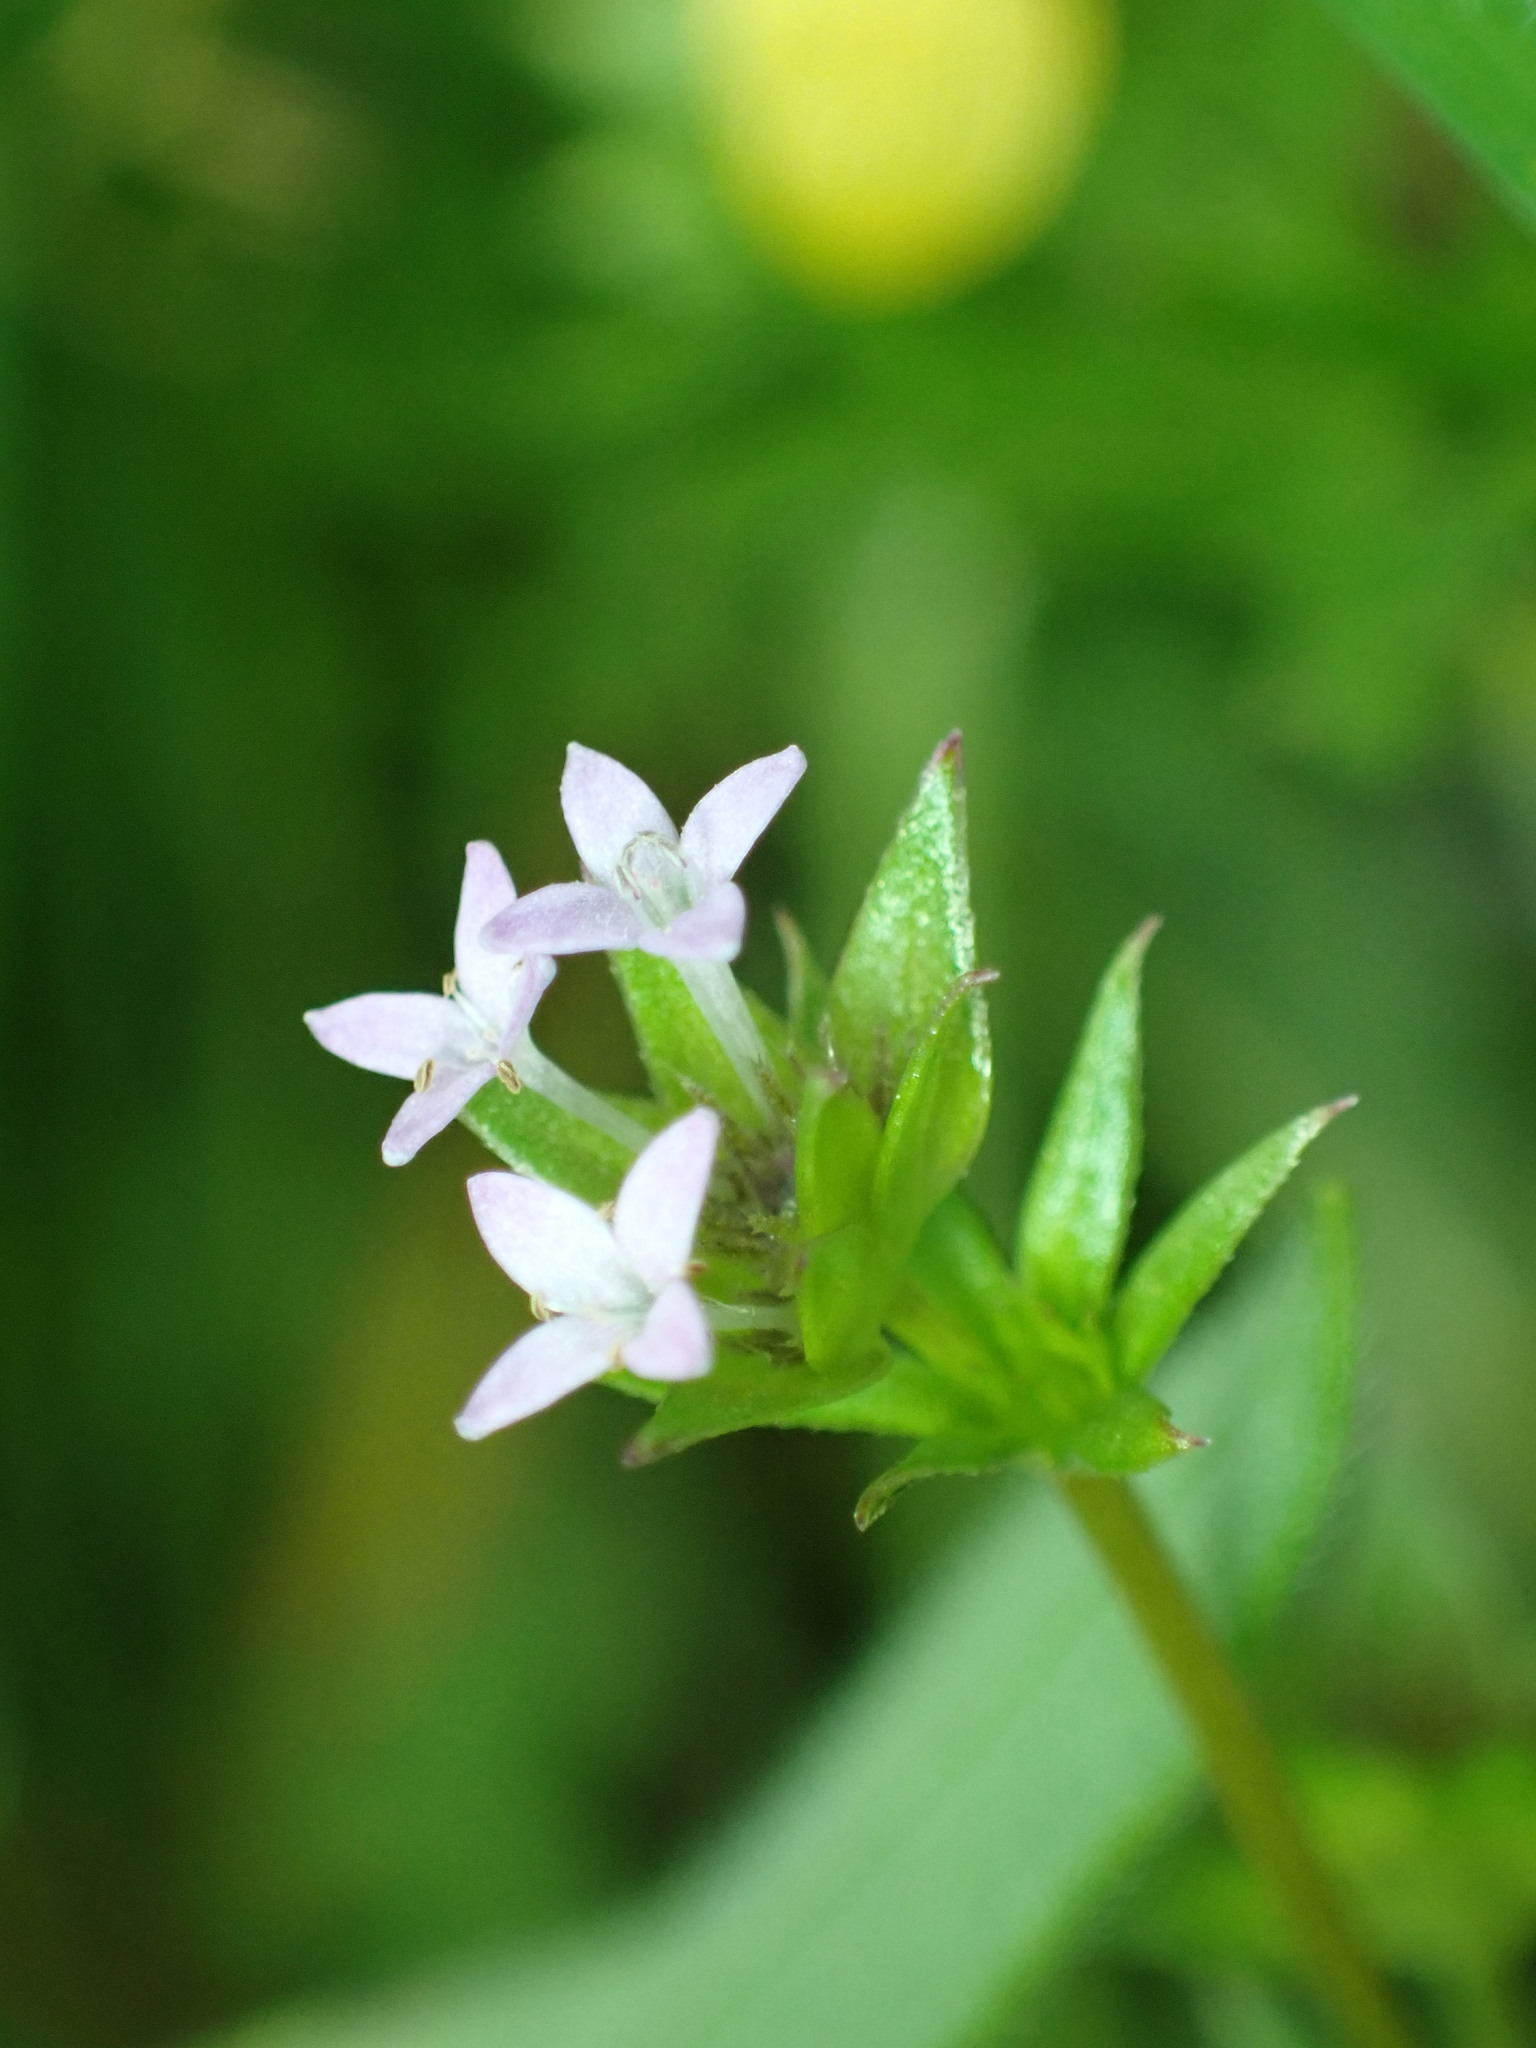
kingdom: Plantae
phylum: Tracheophyta
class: Magnoliopsida
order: Gentianales
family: Rubiaceae
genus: Sherardia
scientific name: Sherardia arvensis
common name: Field madder
